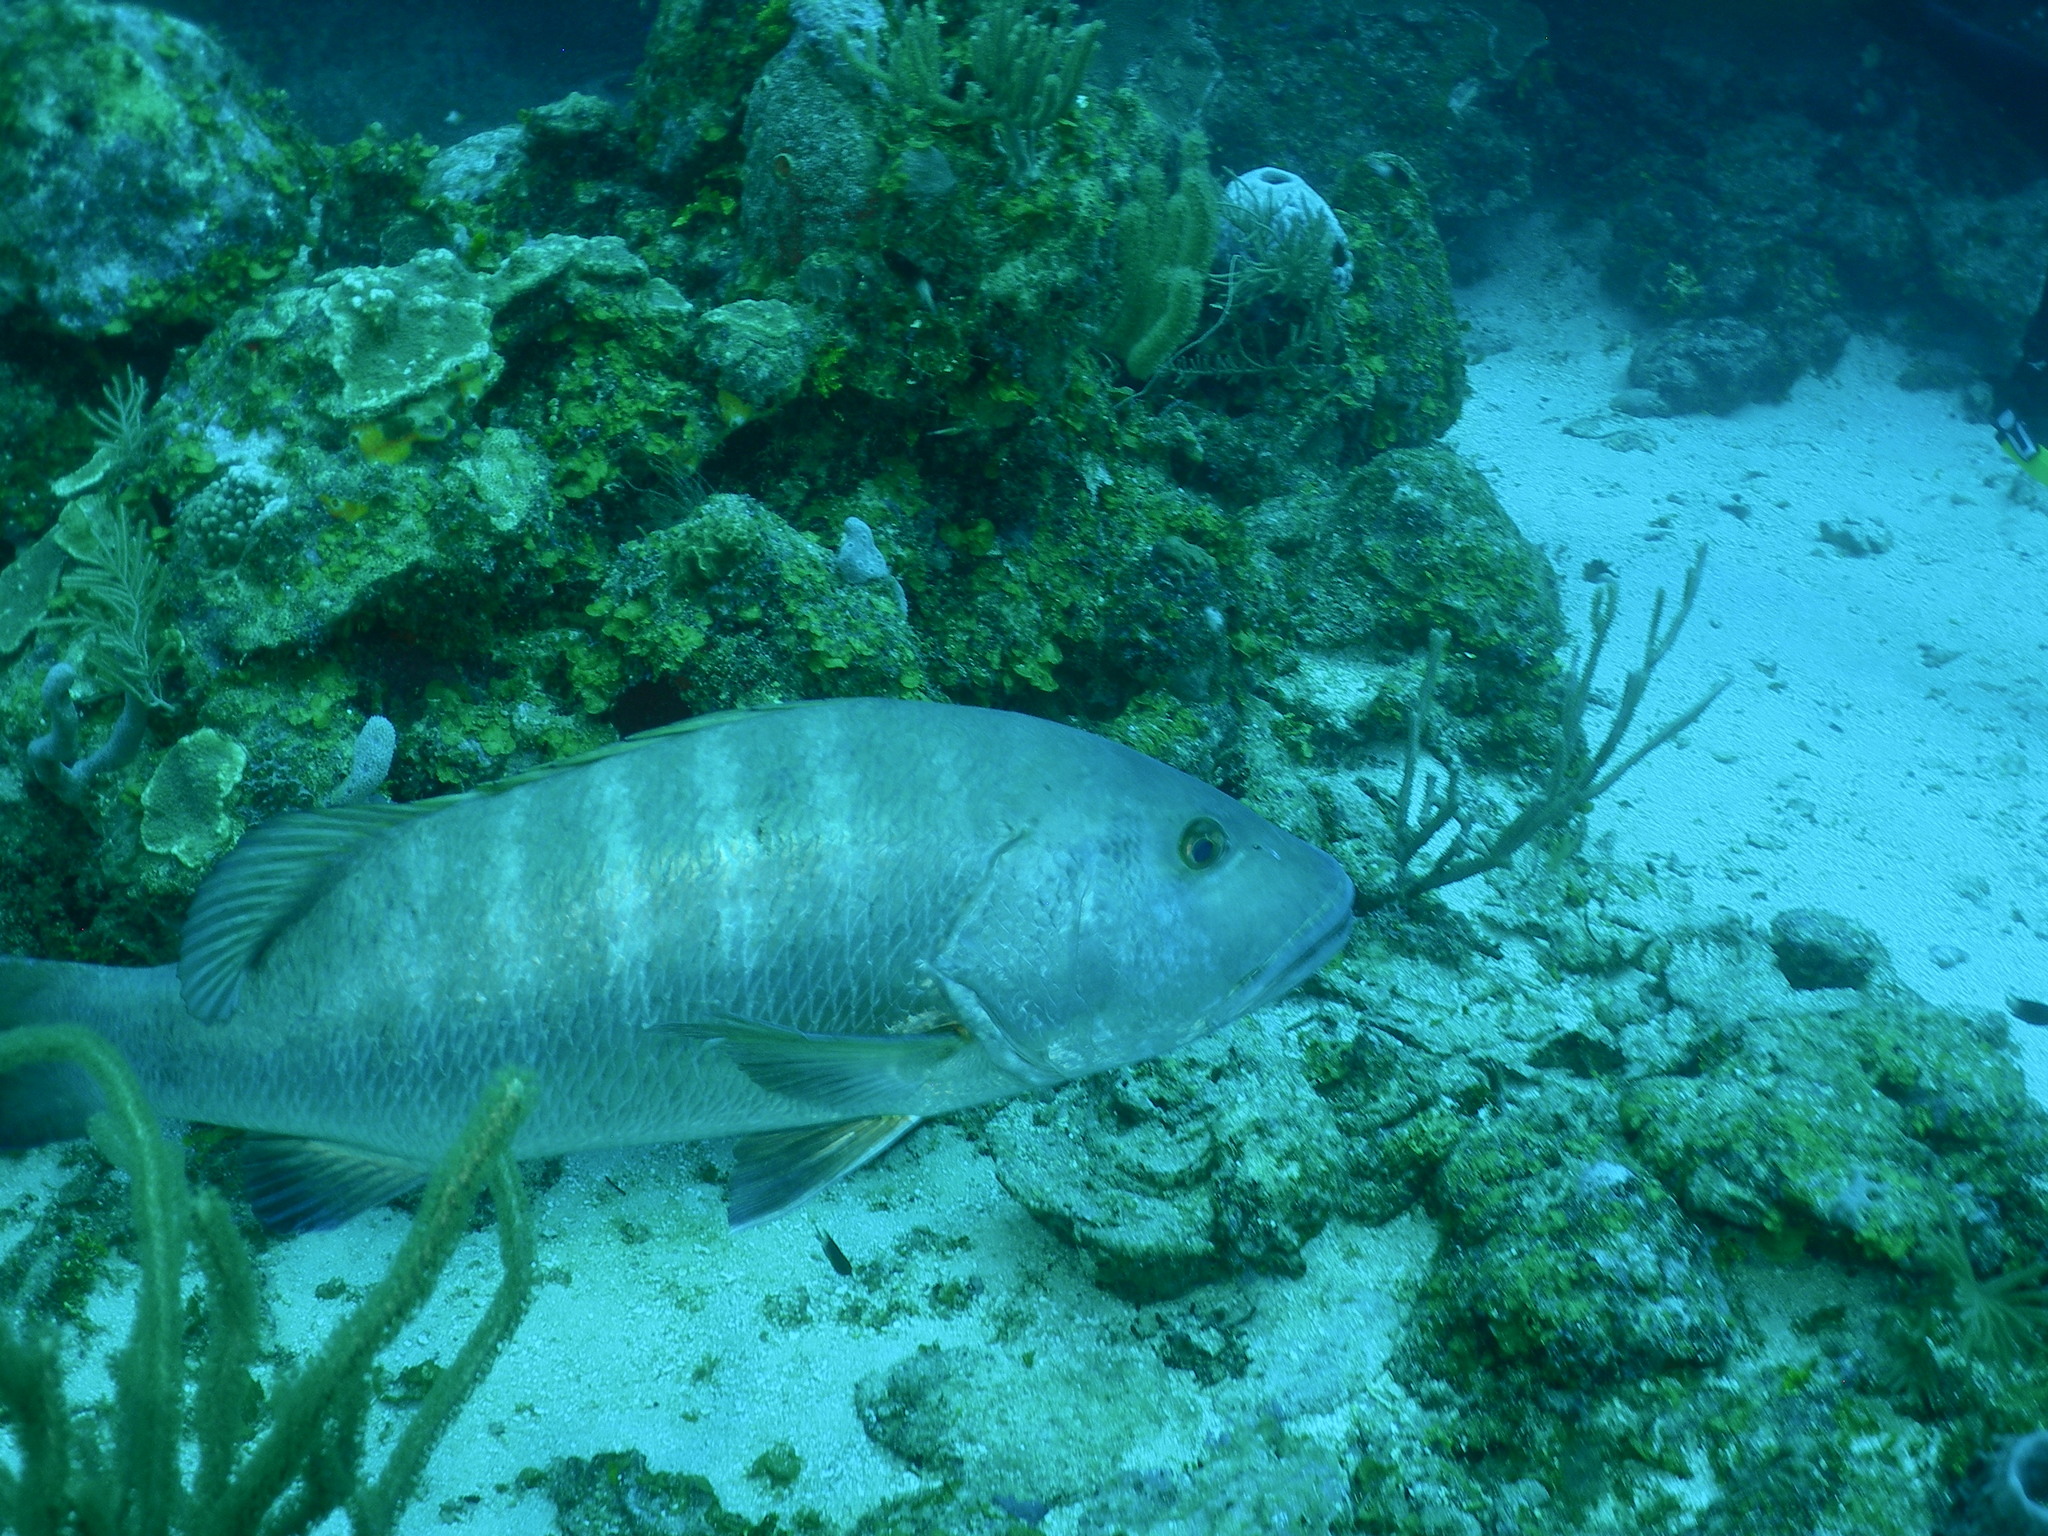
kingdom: Animalia
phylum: Chordata
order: Perciformes
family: Lutjanidae
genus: Lutjanus
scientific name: Lutjanus cyanopterus
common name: Cubera snapper
